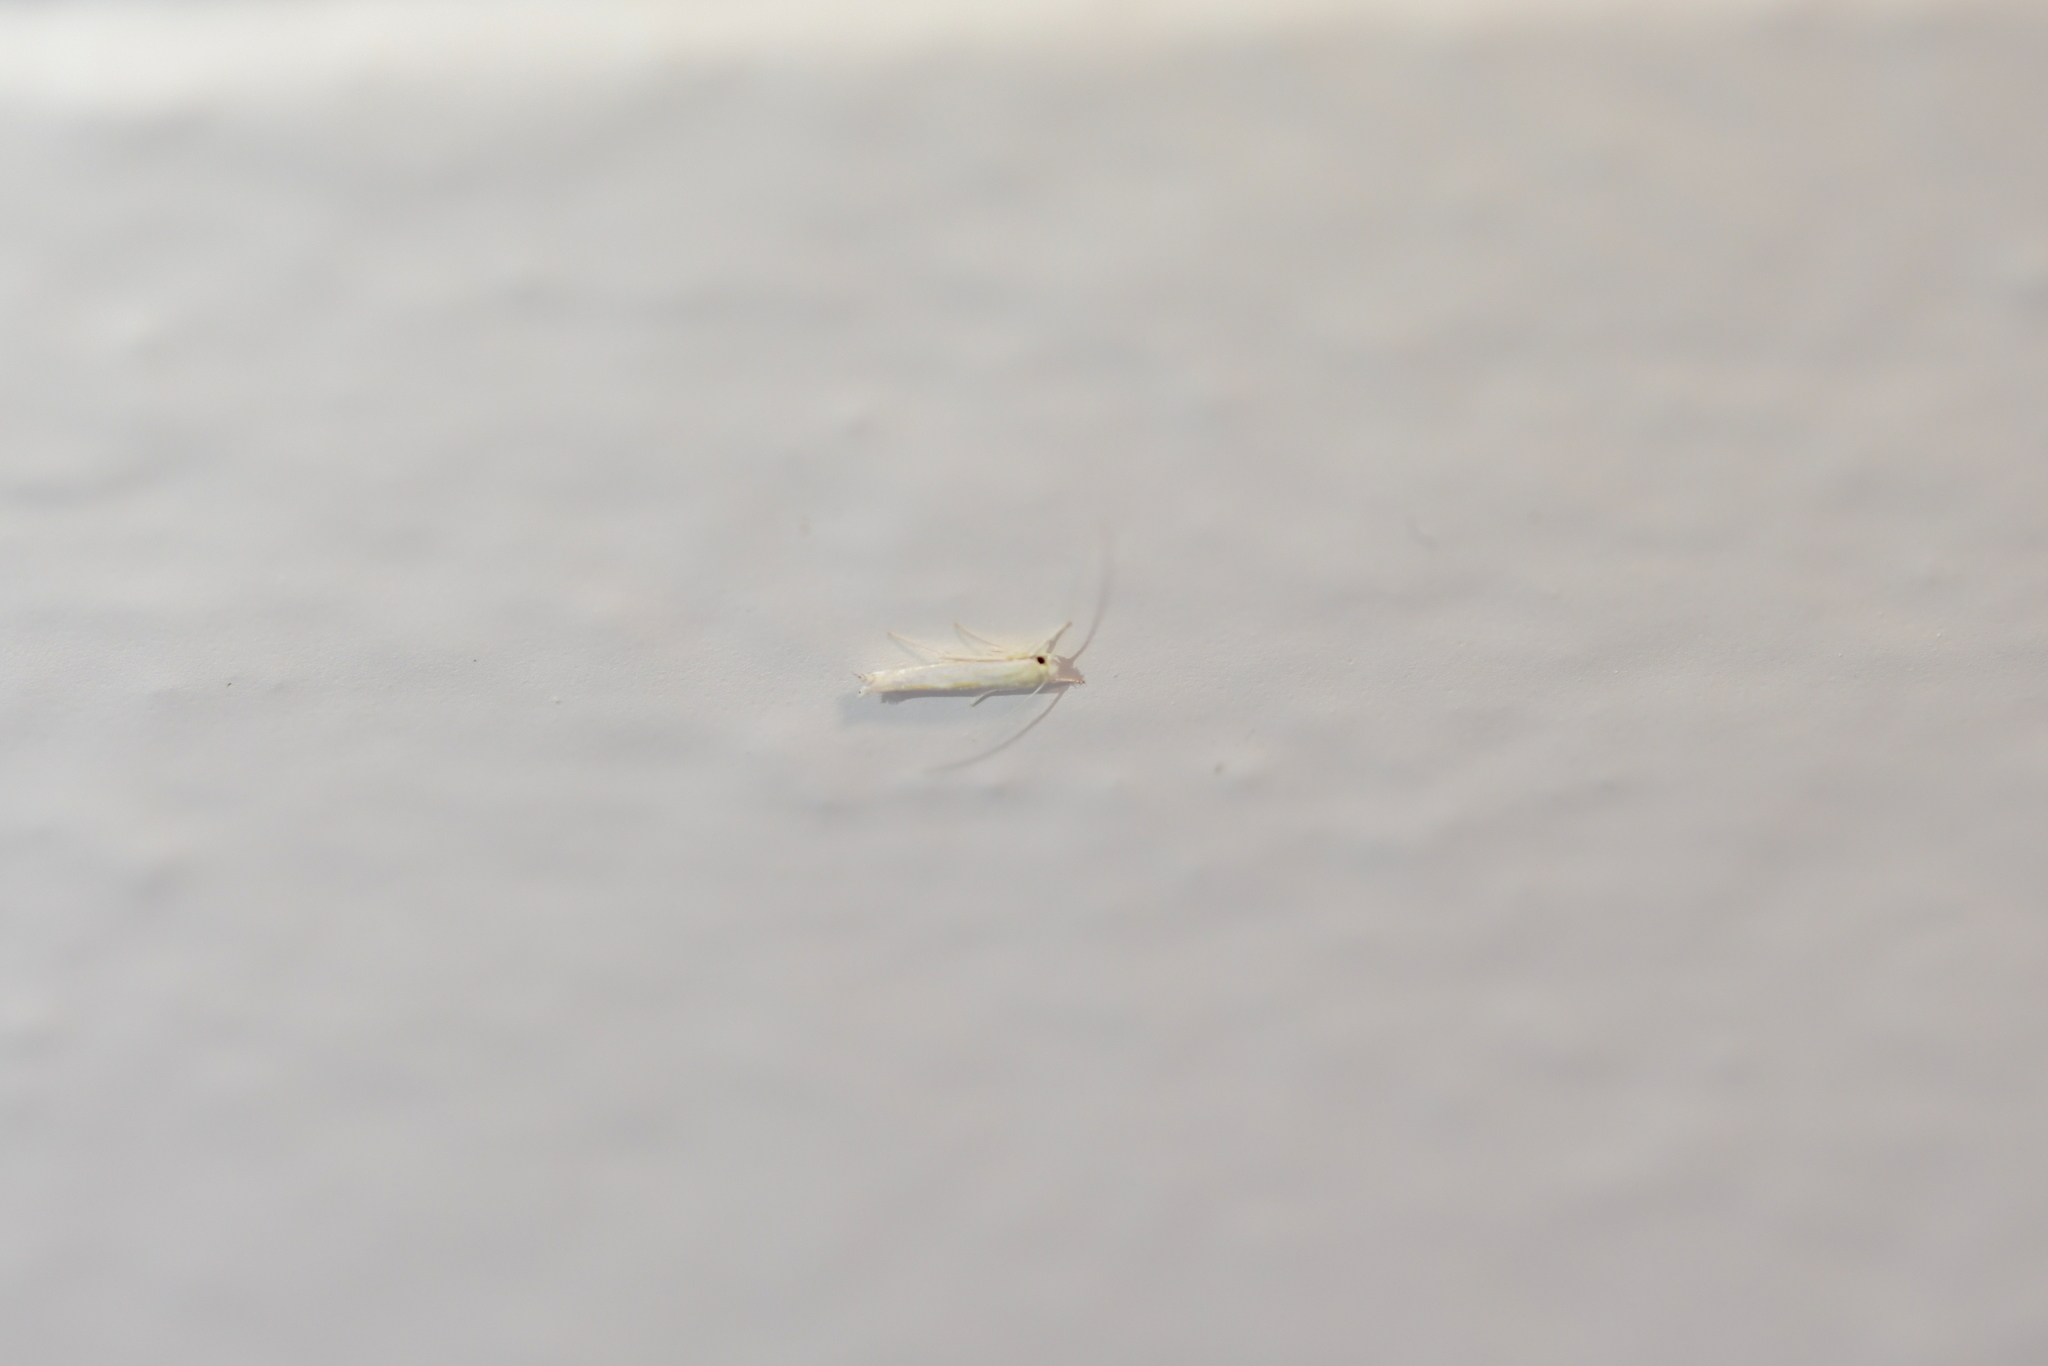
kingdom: Animalia
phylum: Arthropoda
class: Insecta
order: Lepidoptera
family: Lyonetiidae
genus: Stegommata
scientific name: Stegommata sulfuratella
